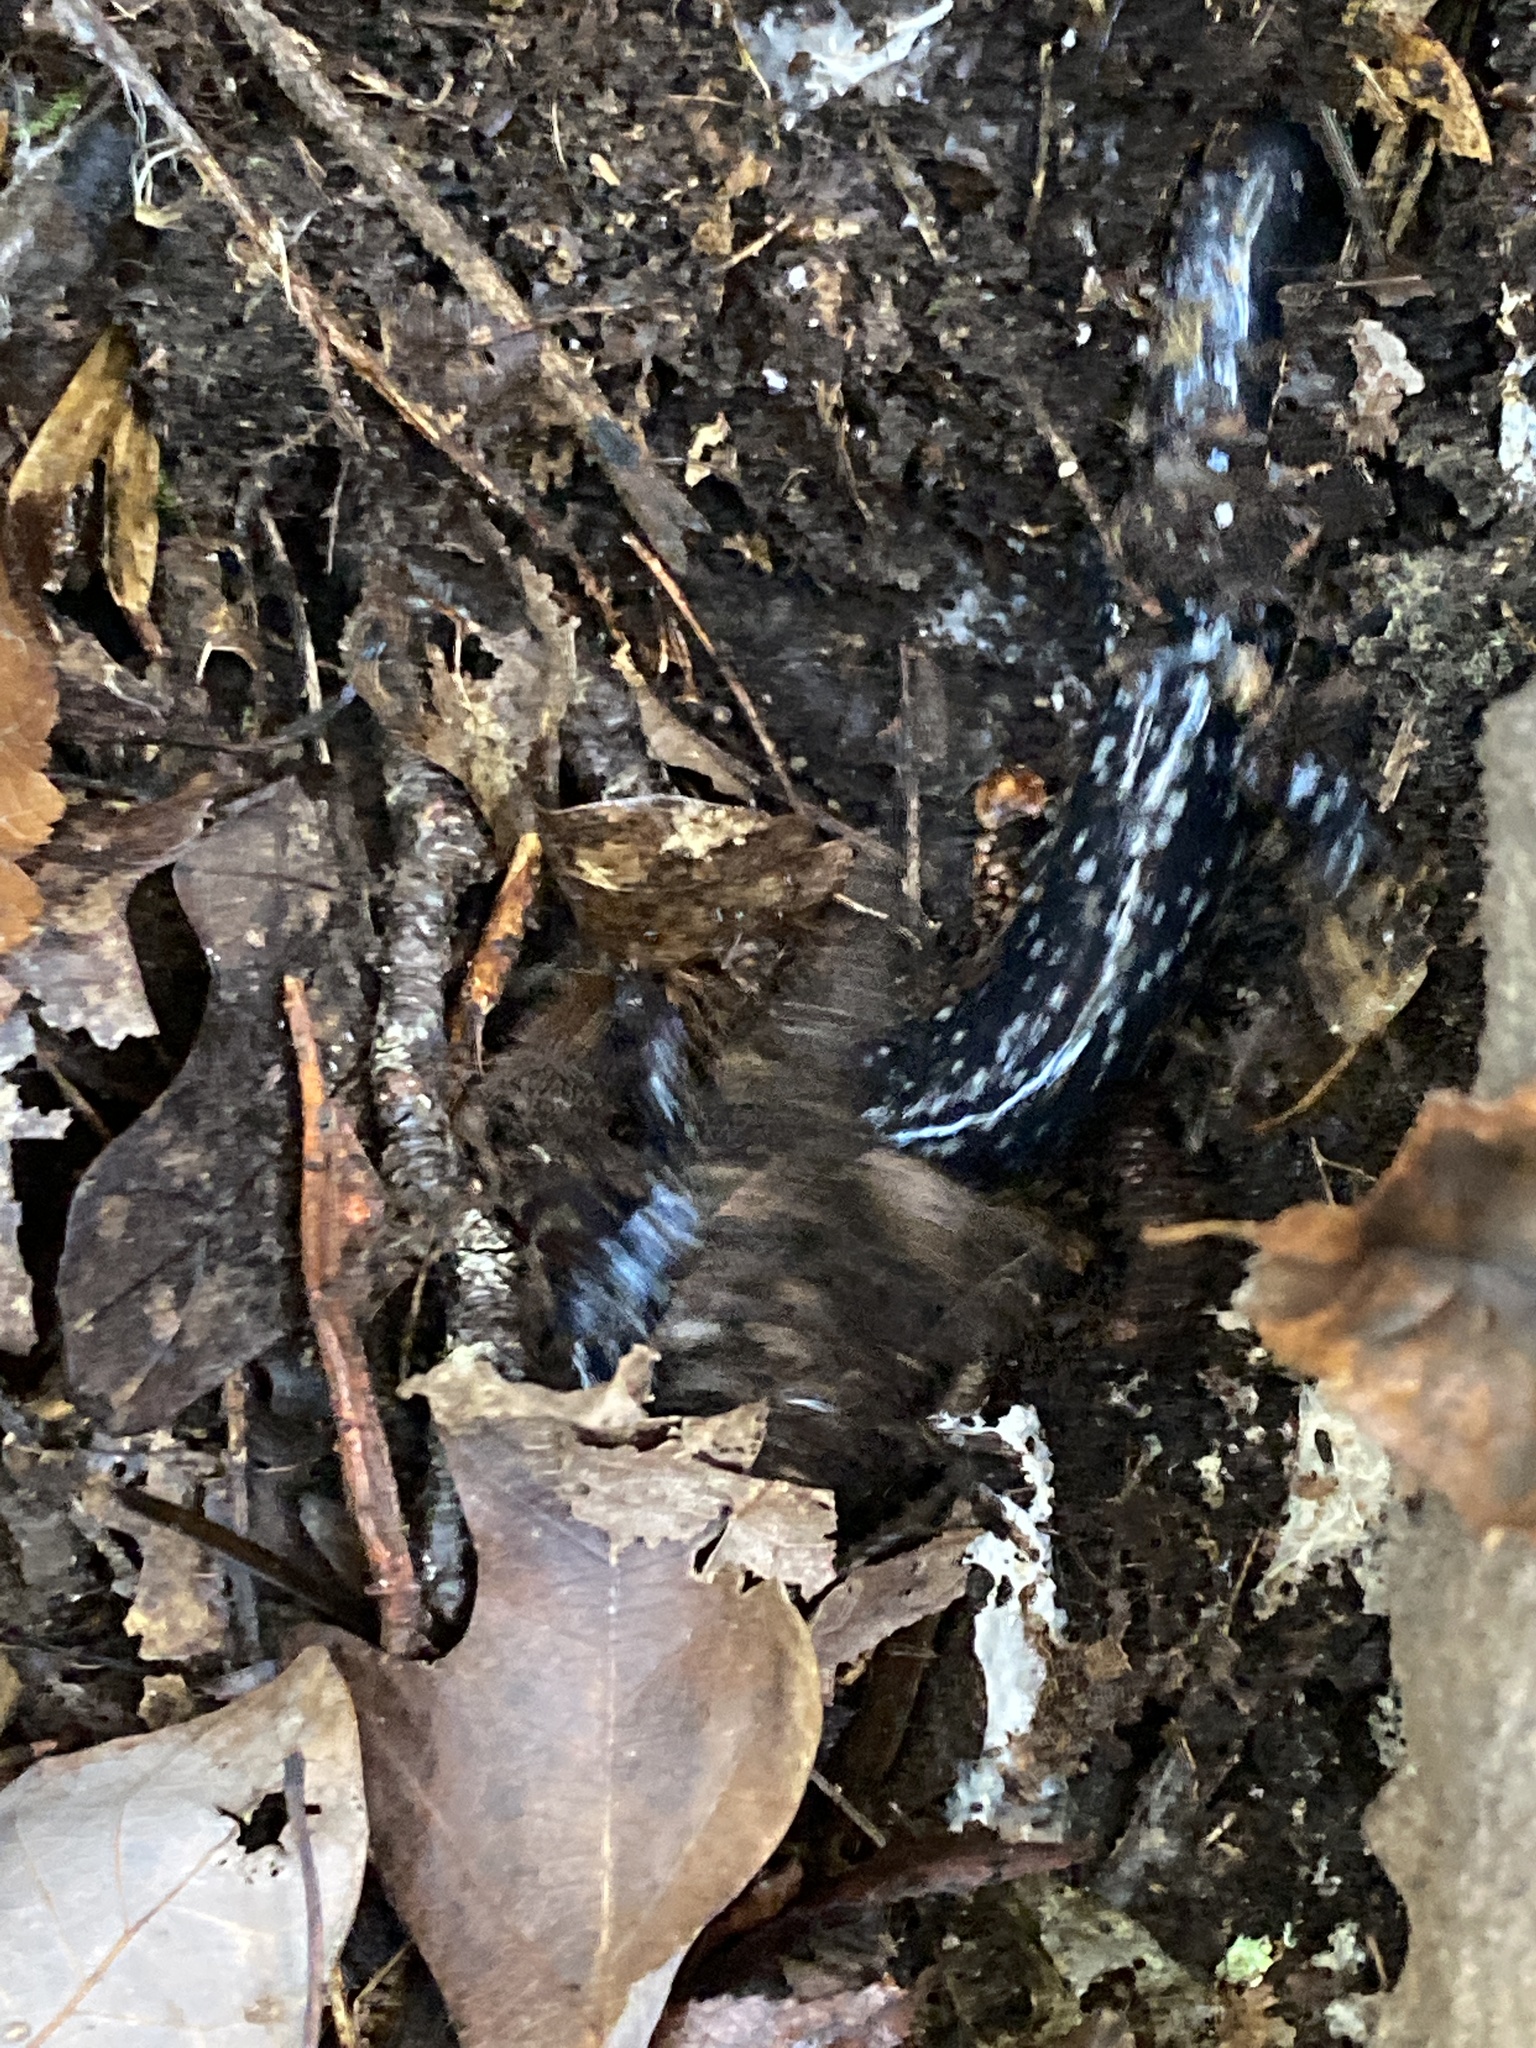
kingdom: Animalia
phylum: Chordata
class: Amphibia
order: Caudata
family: Plethodontidae
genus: Plethodon
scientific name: Plethodon cylindraceus
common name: White-spotted slimy salamander
